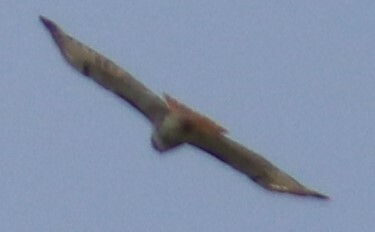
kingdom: Animalia
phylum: Chordata
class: Aves
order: Accipitriformes
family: Accipitridae
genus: Buteo
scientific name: Buteo jamaicensis
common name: Red-tailed hawk
